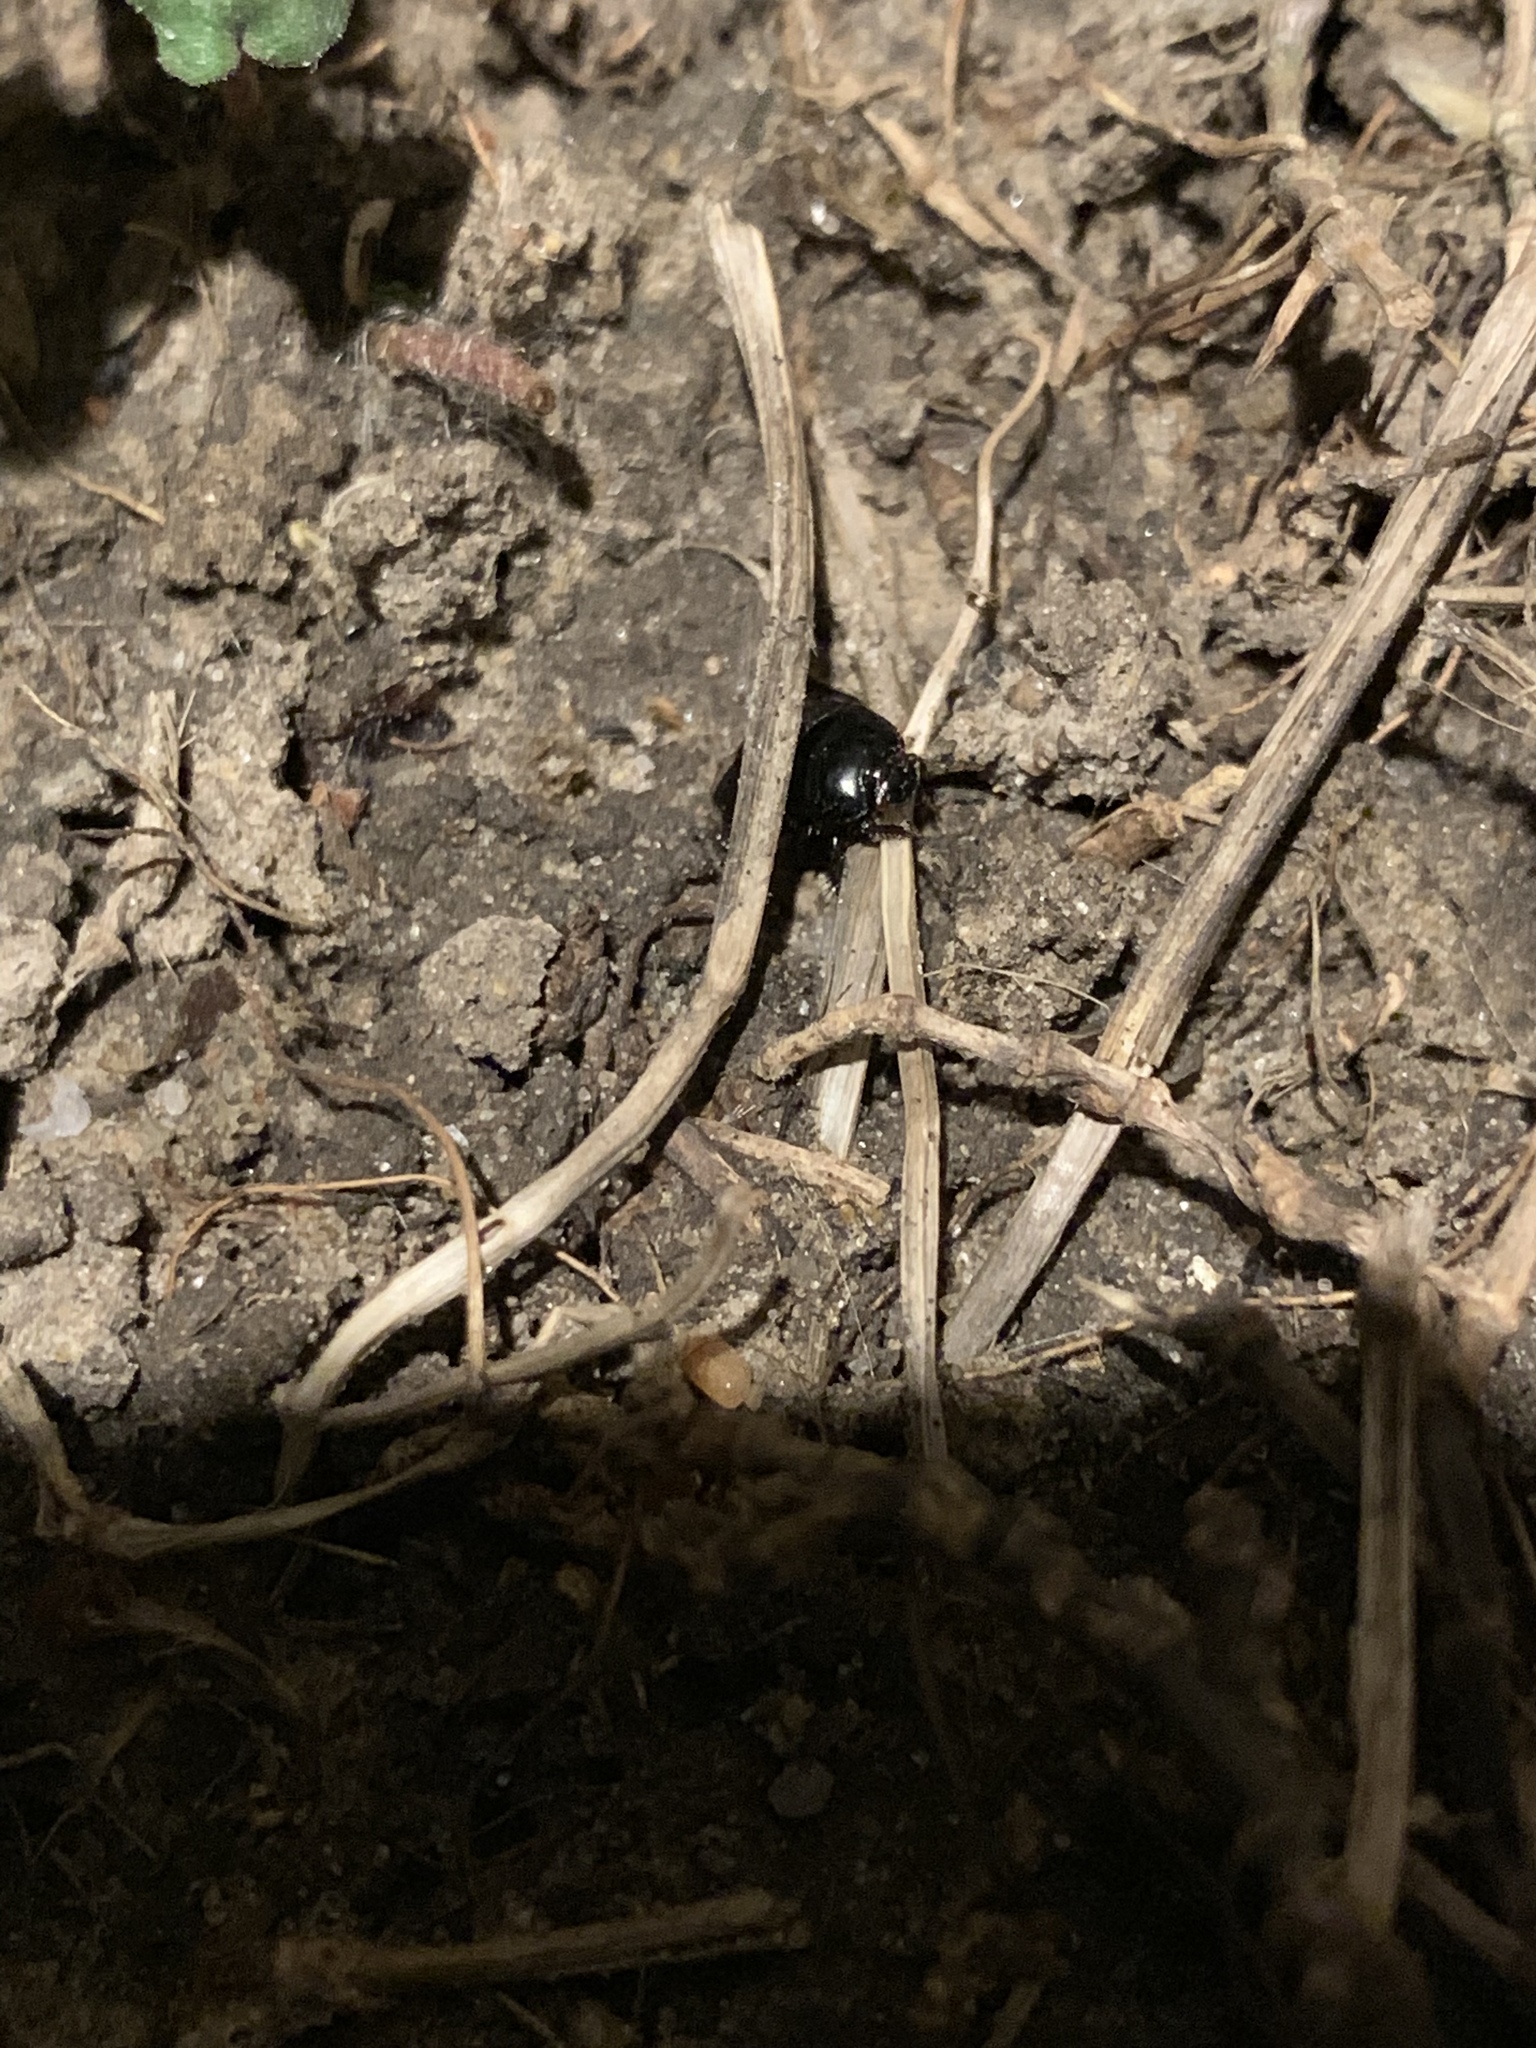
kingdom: Animalia
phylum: Arthropoda
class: Insecta
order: Hemiptera
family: Cydnidae
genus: Pangaeus
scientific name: Pangaeus bilineatus
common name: Burrower bug
